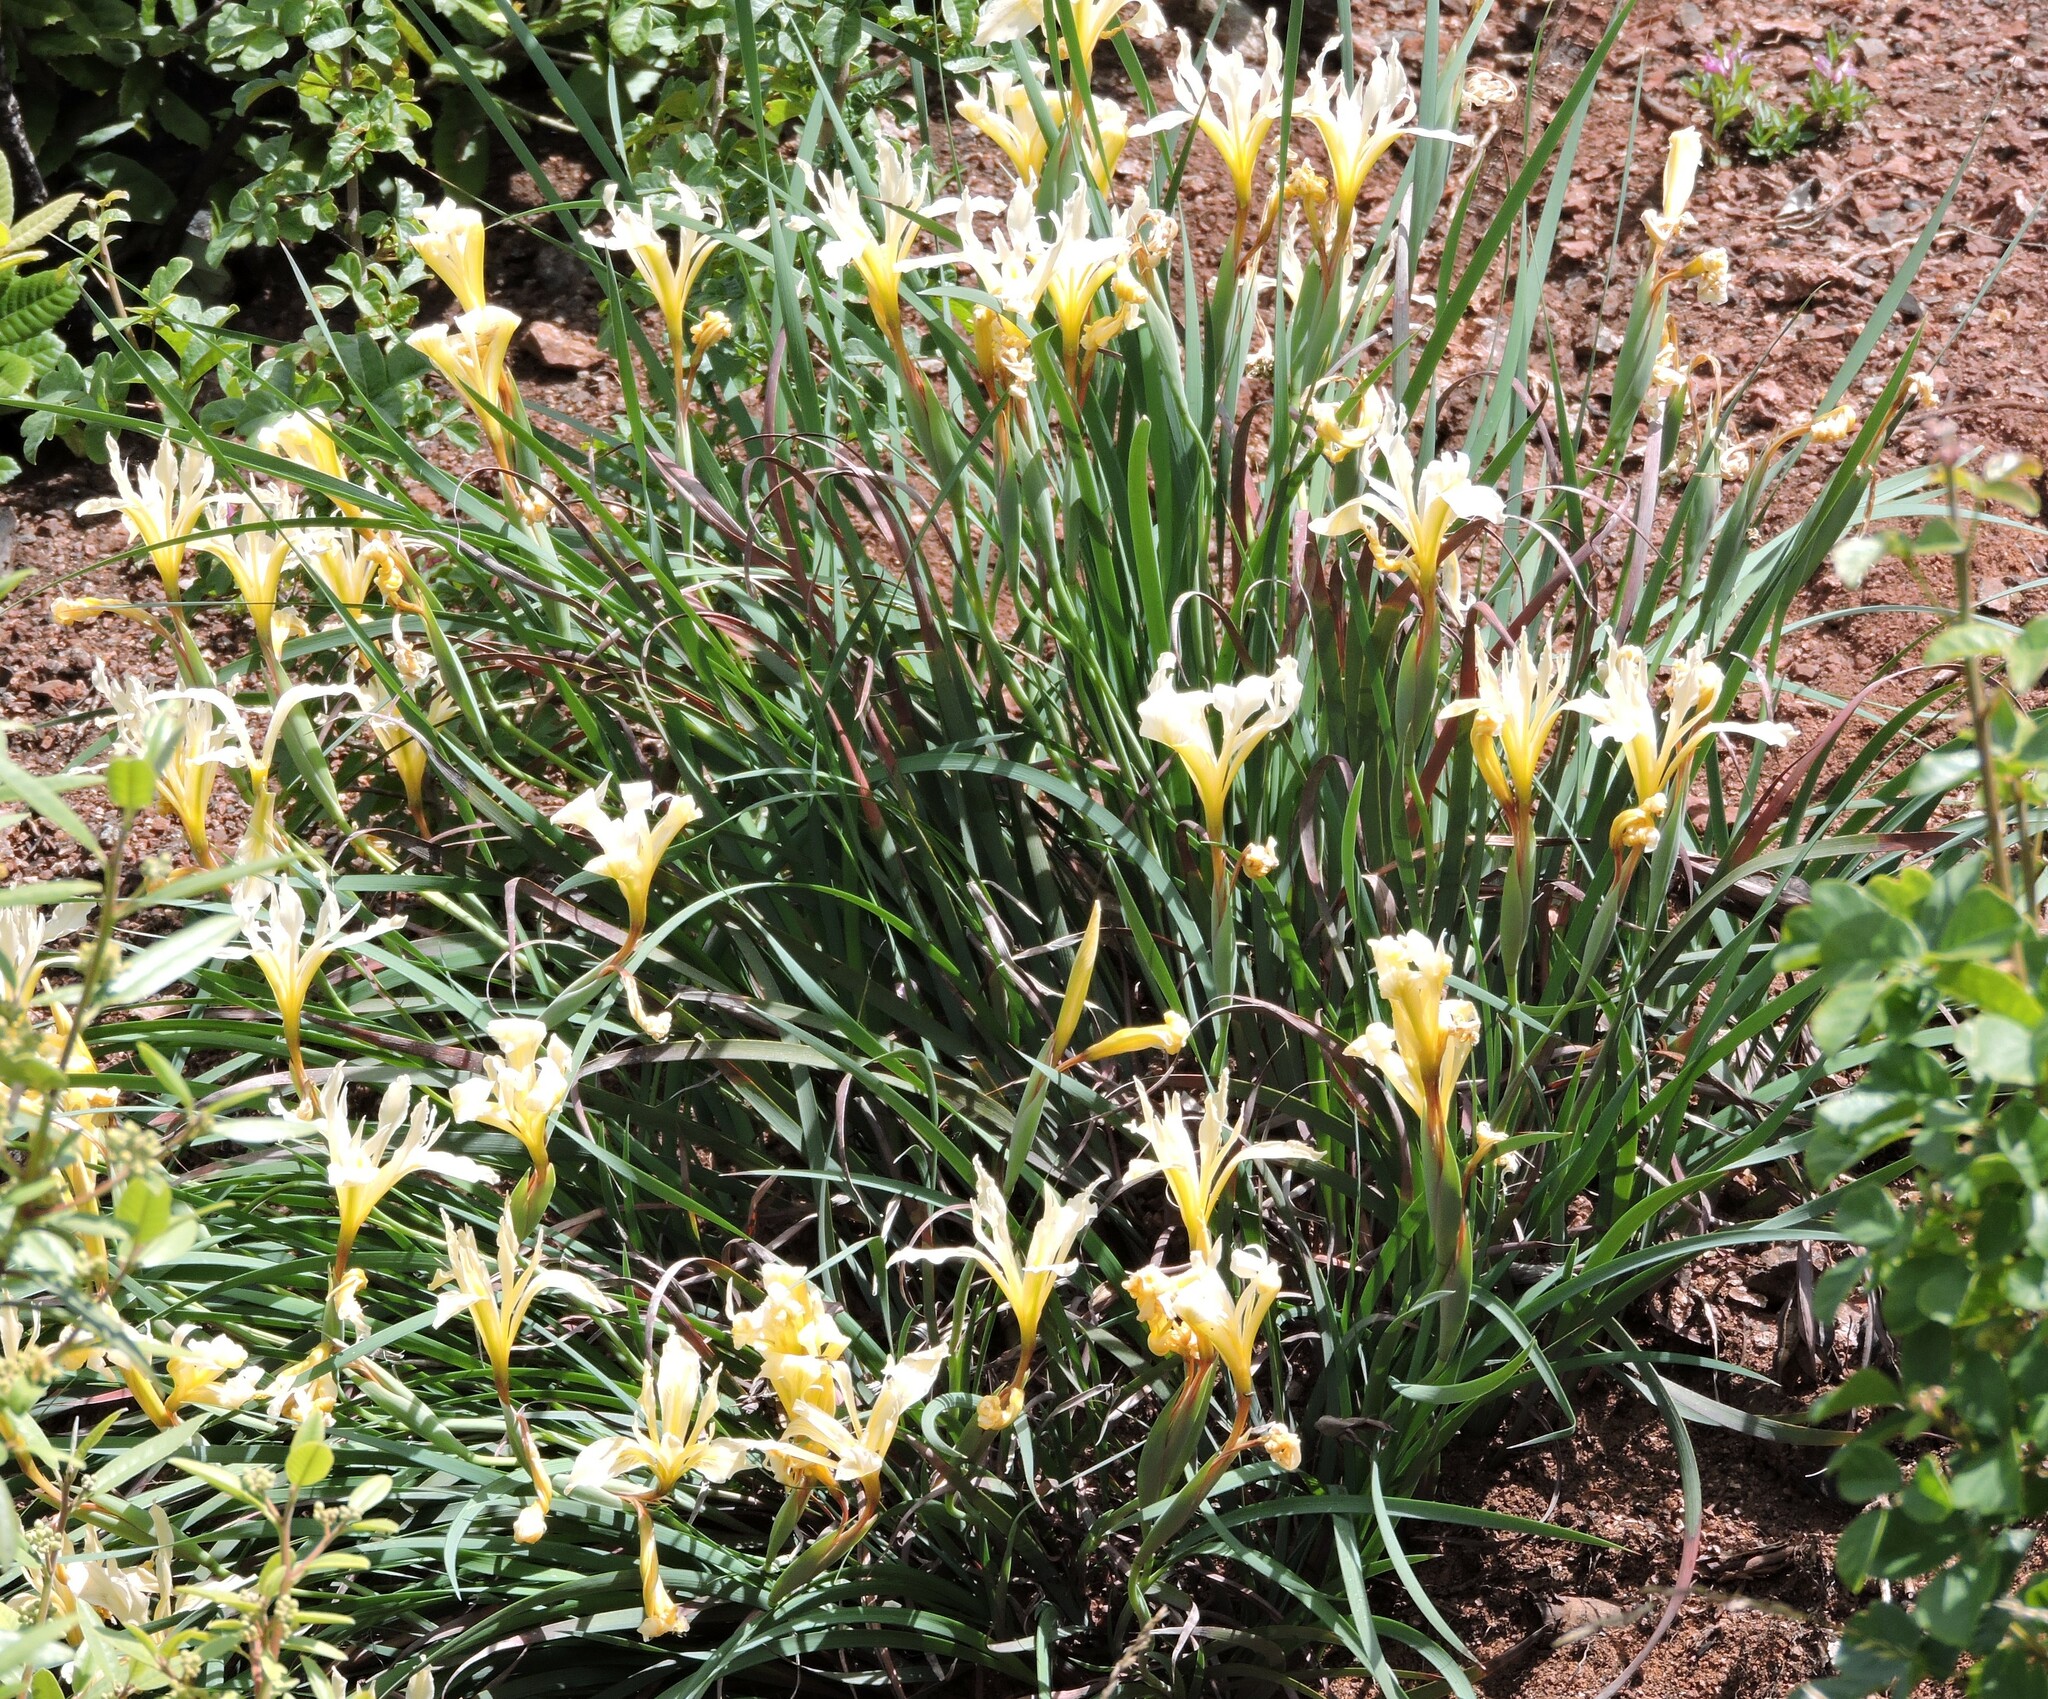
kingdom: Plantae
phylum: Tracheophyta
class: Liliopsida
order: Asparagales
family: Iridaceae
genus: Iris
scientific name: Iris fernaldii
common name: Fernald's iris
